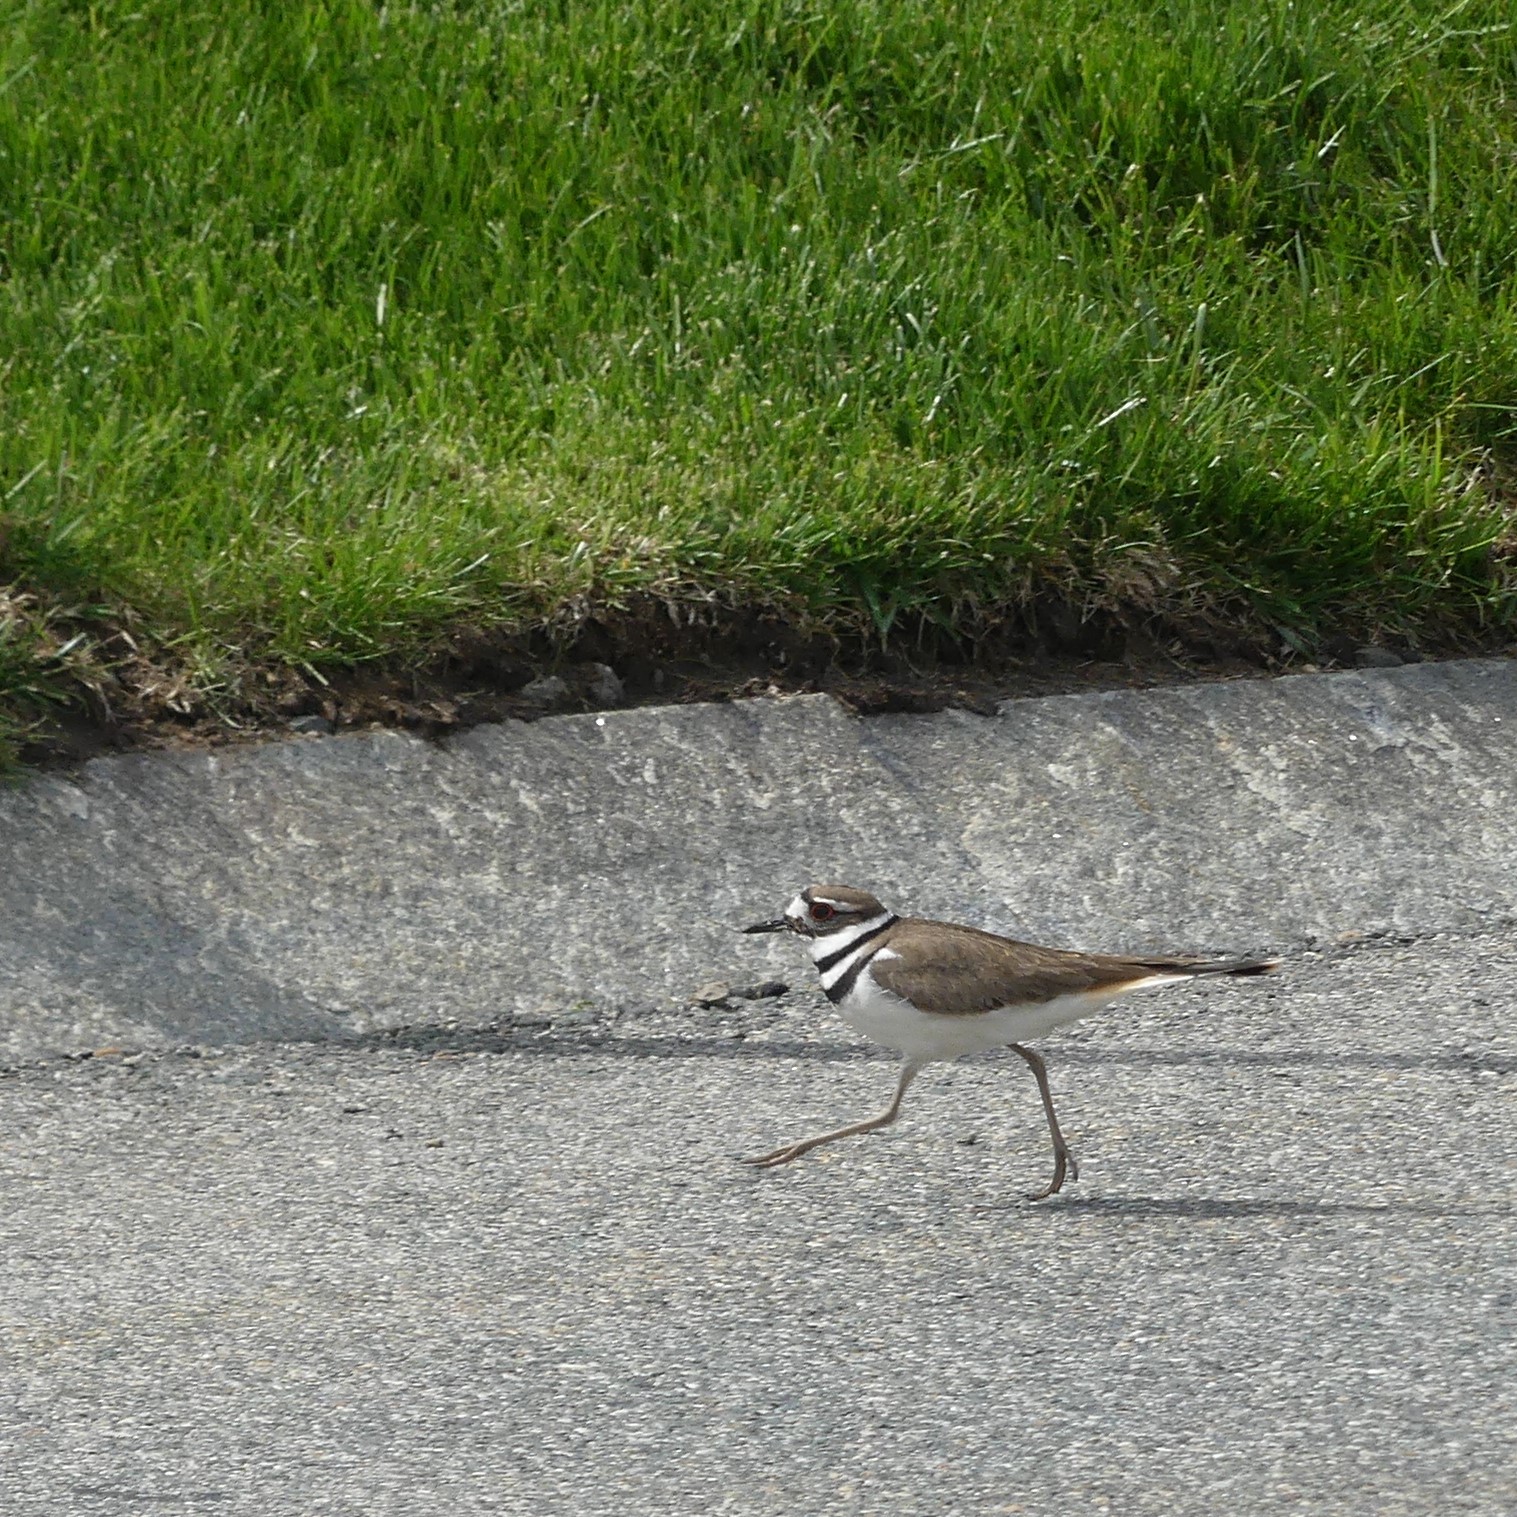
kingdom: Animalia
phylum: Chordata
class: Aves
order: Charadriiformes
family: Charadriidae
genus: Charadrius
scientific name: Charadrius vociferus
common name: Killdeer
